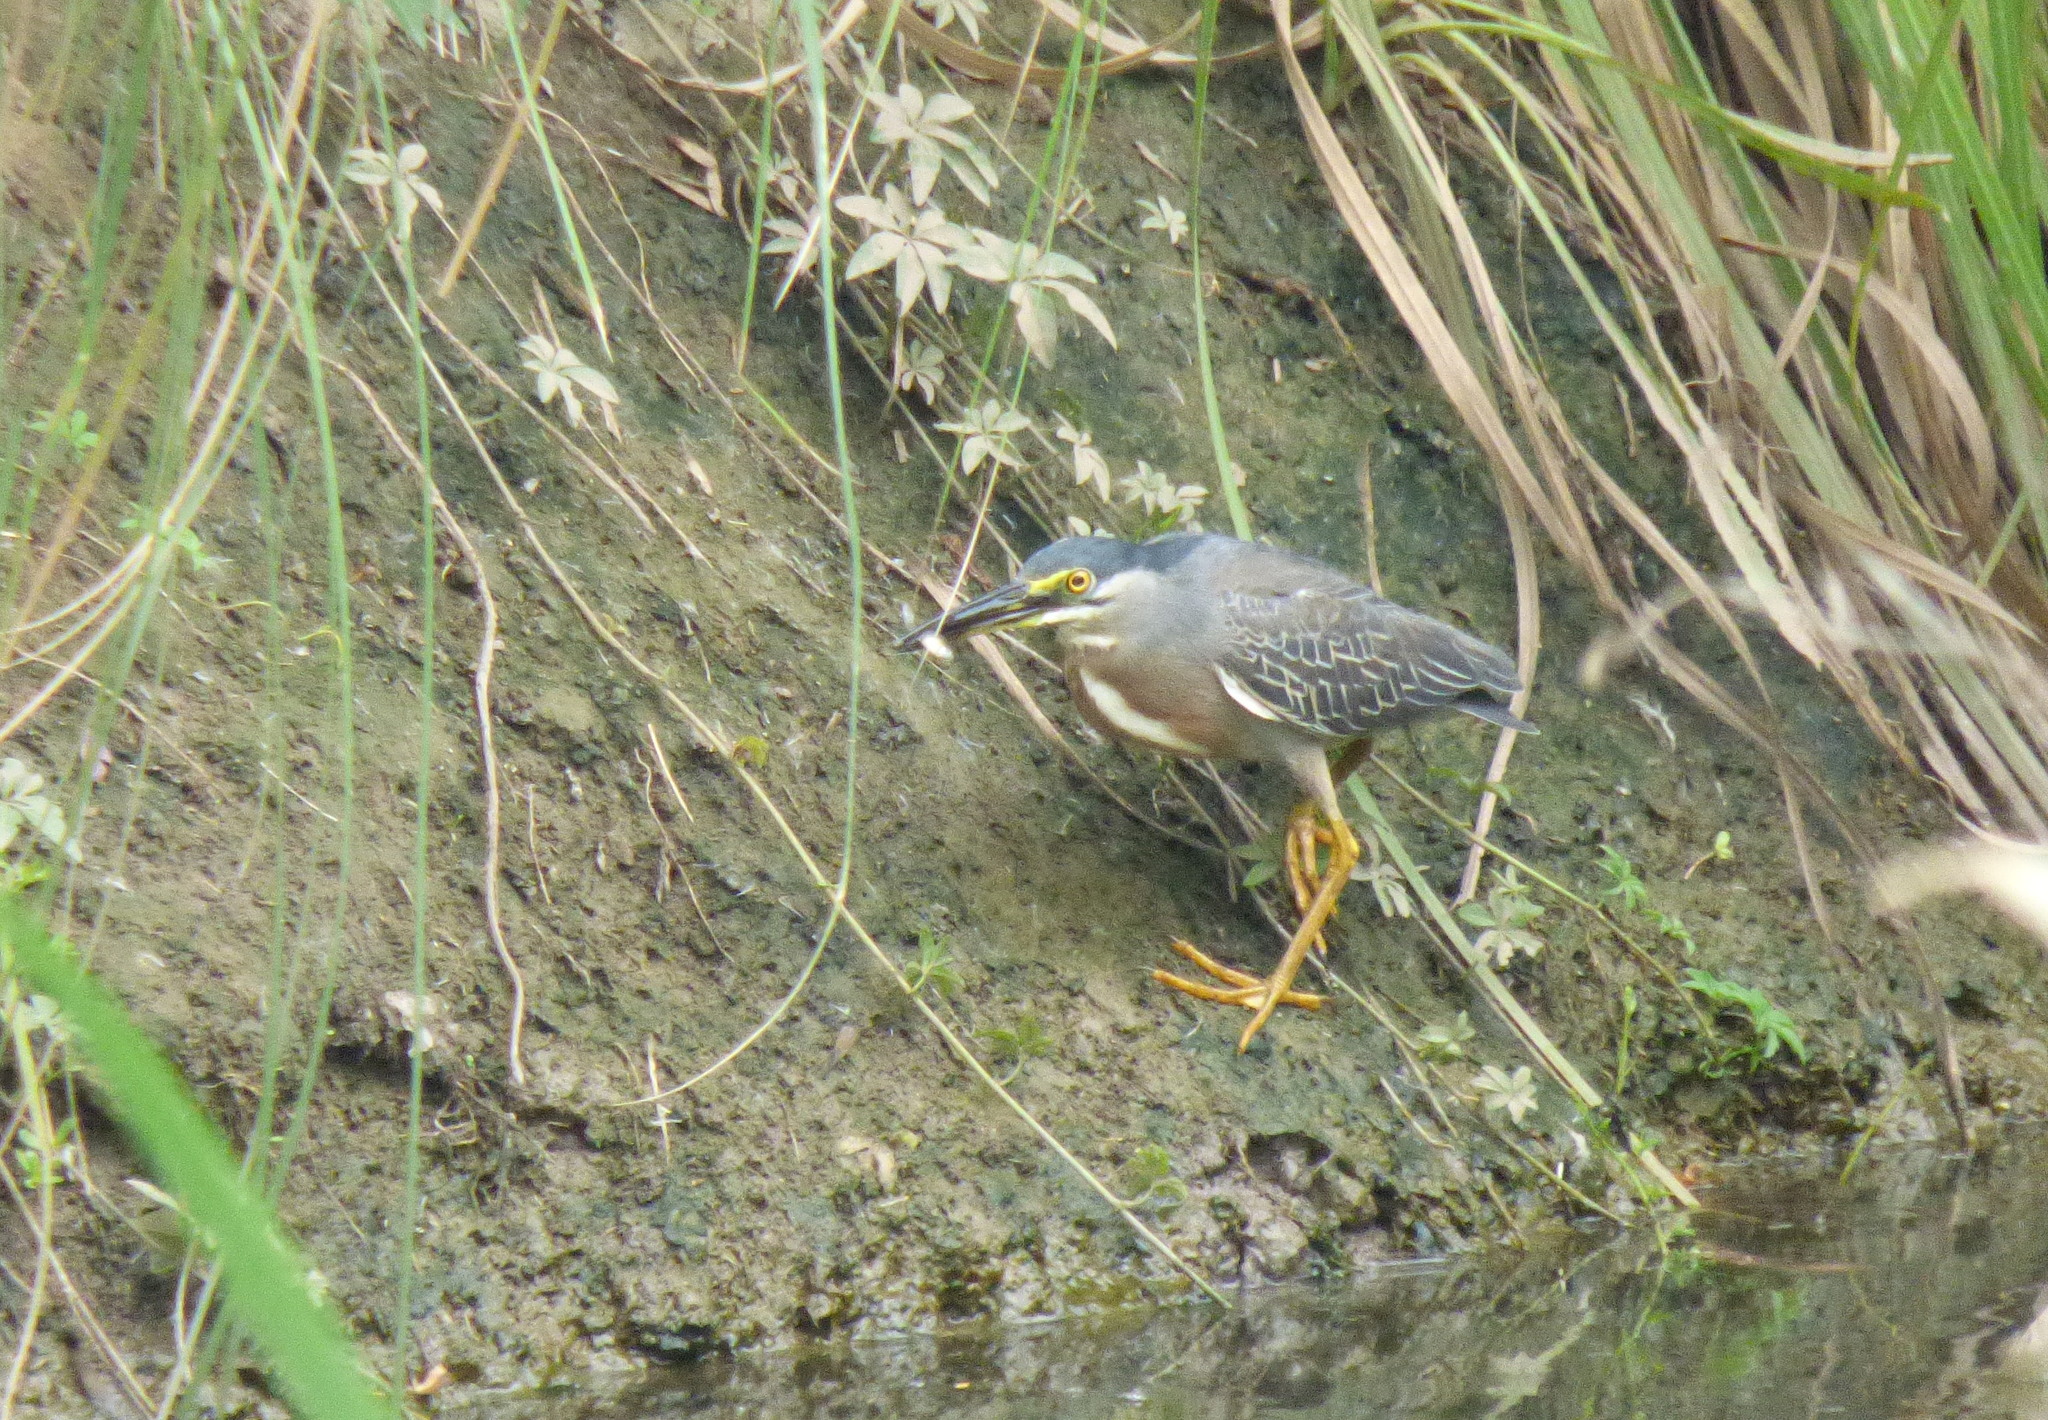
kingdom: Animalia
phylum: Chordata
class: Aves
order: Pelecaniformes
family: Ardeidae
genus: Butorides
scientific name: Butorides striata
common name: Striated heron
